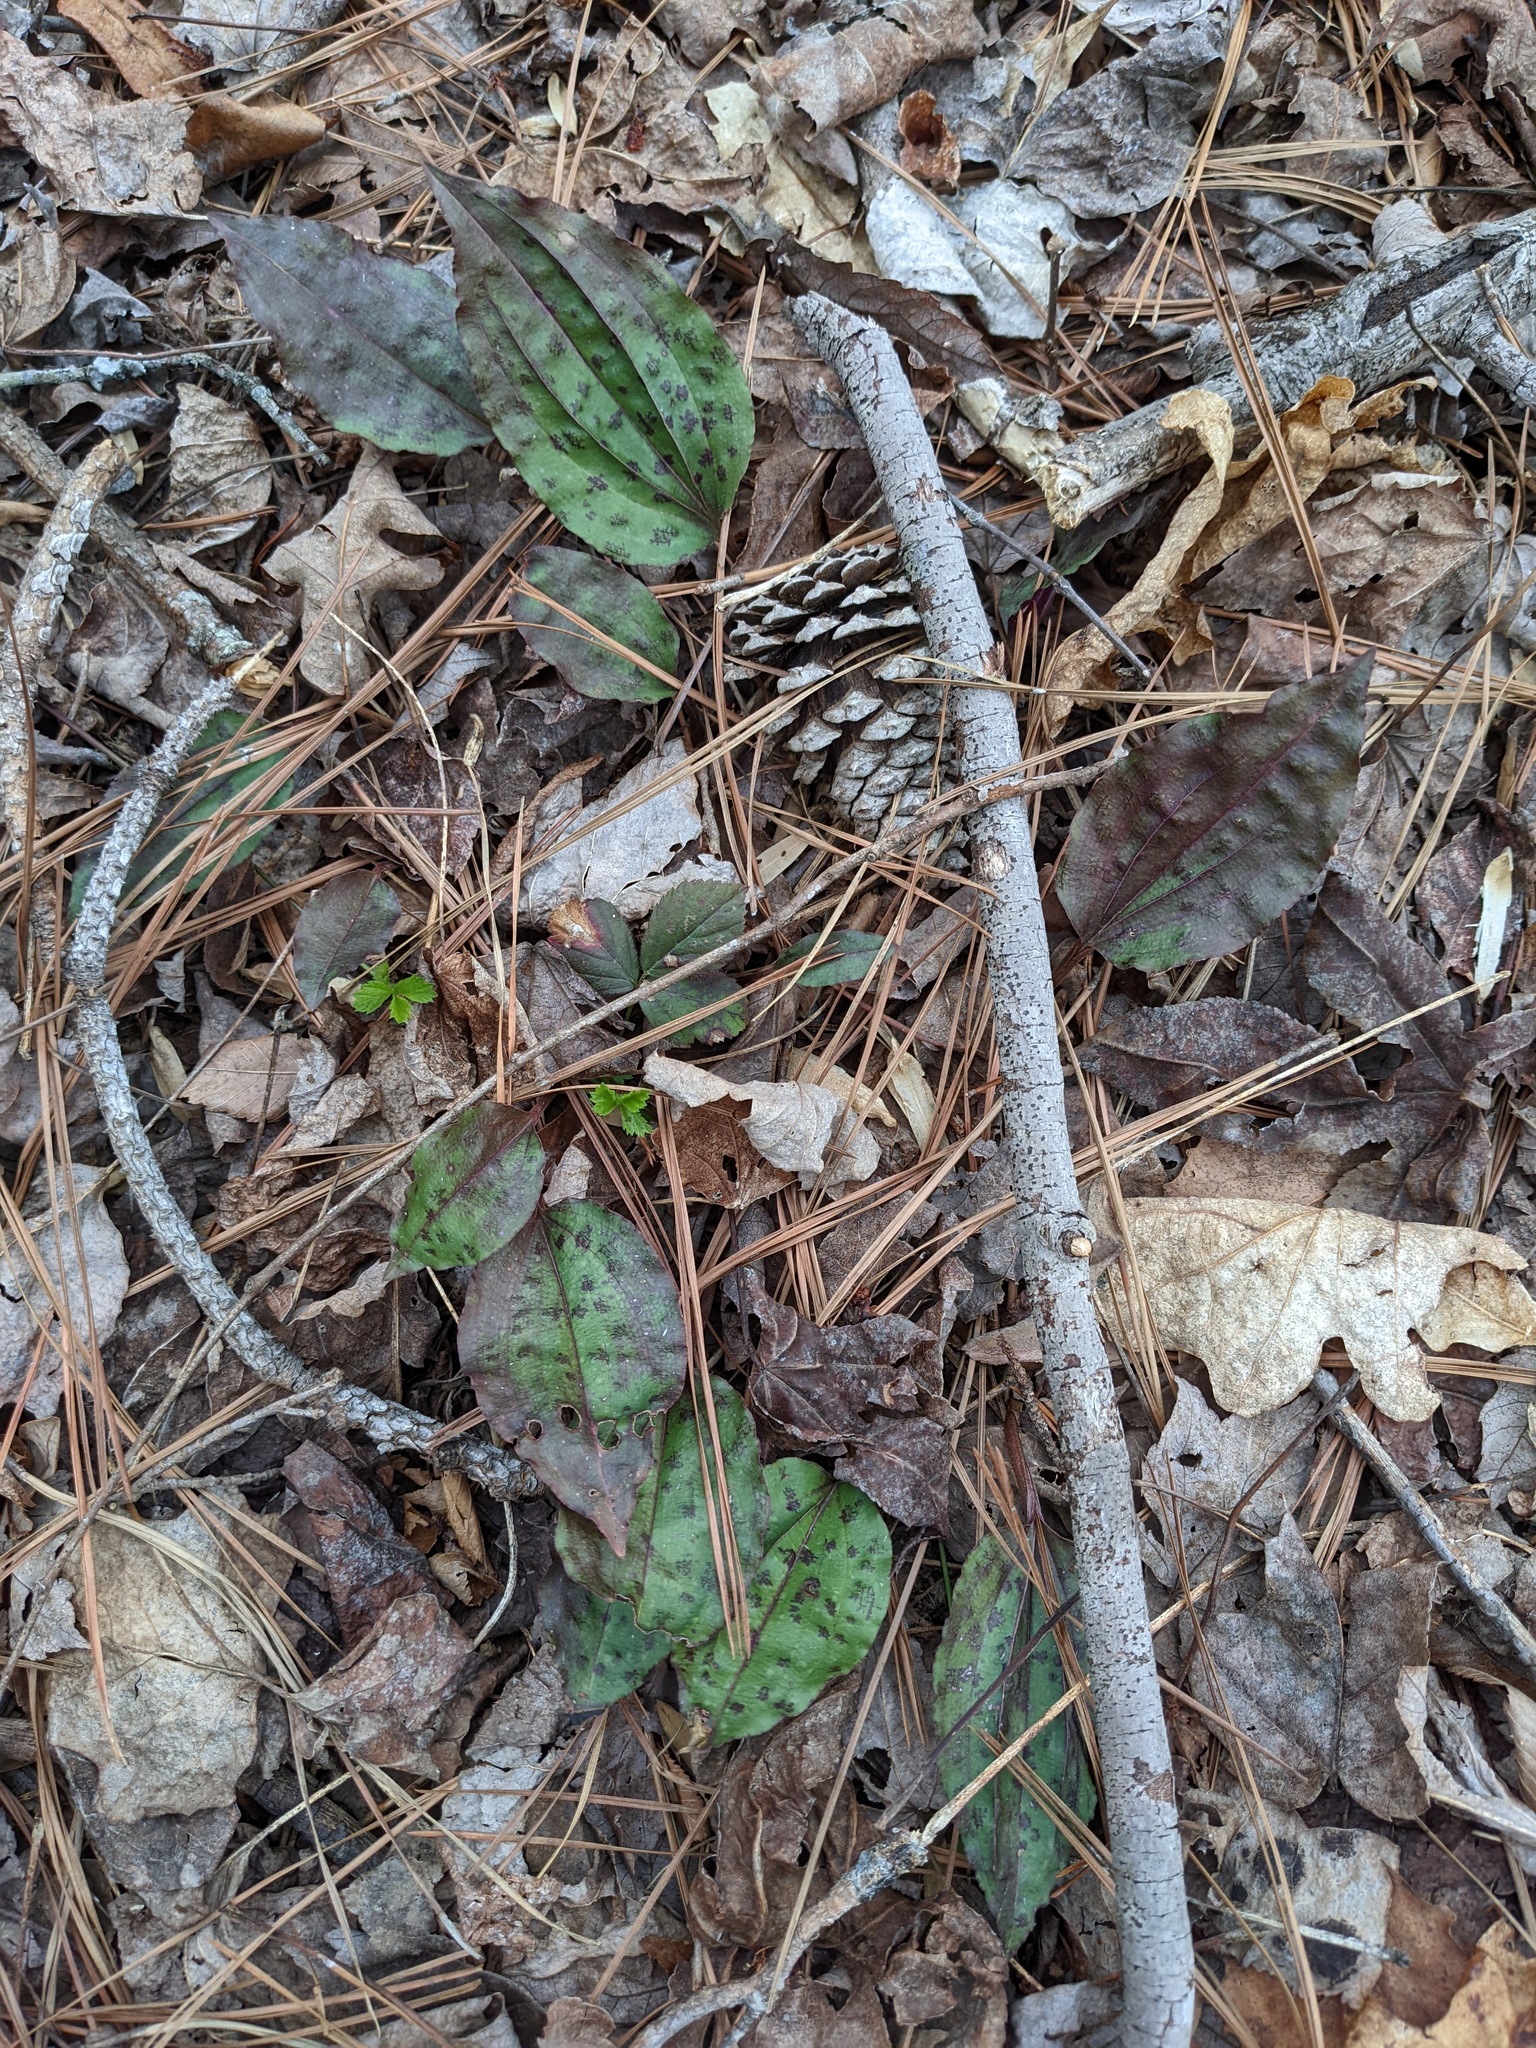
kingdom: Plantae
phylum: Tracheophyta
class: Liliopsida
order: Asparagales
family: Orchidaceae
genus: Tipularia
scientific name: Tipularia discolor
